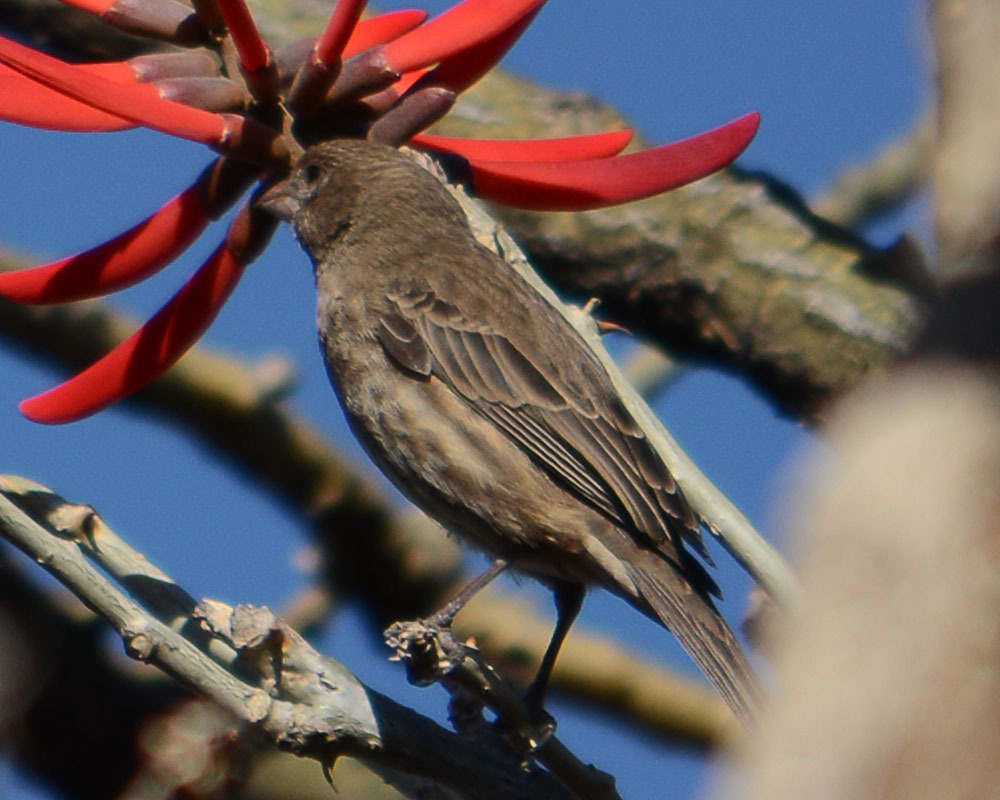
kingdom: Animalia
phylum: Chordata
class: Aves
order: Passeriformes
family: Fringillidae
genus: Haemorhous
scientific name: Haemorhous mexicanus
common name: House finch
